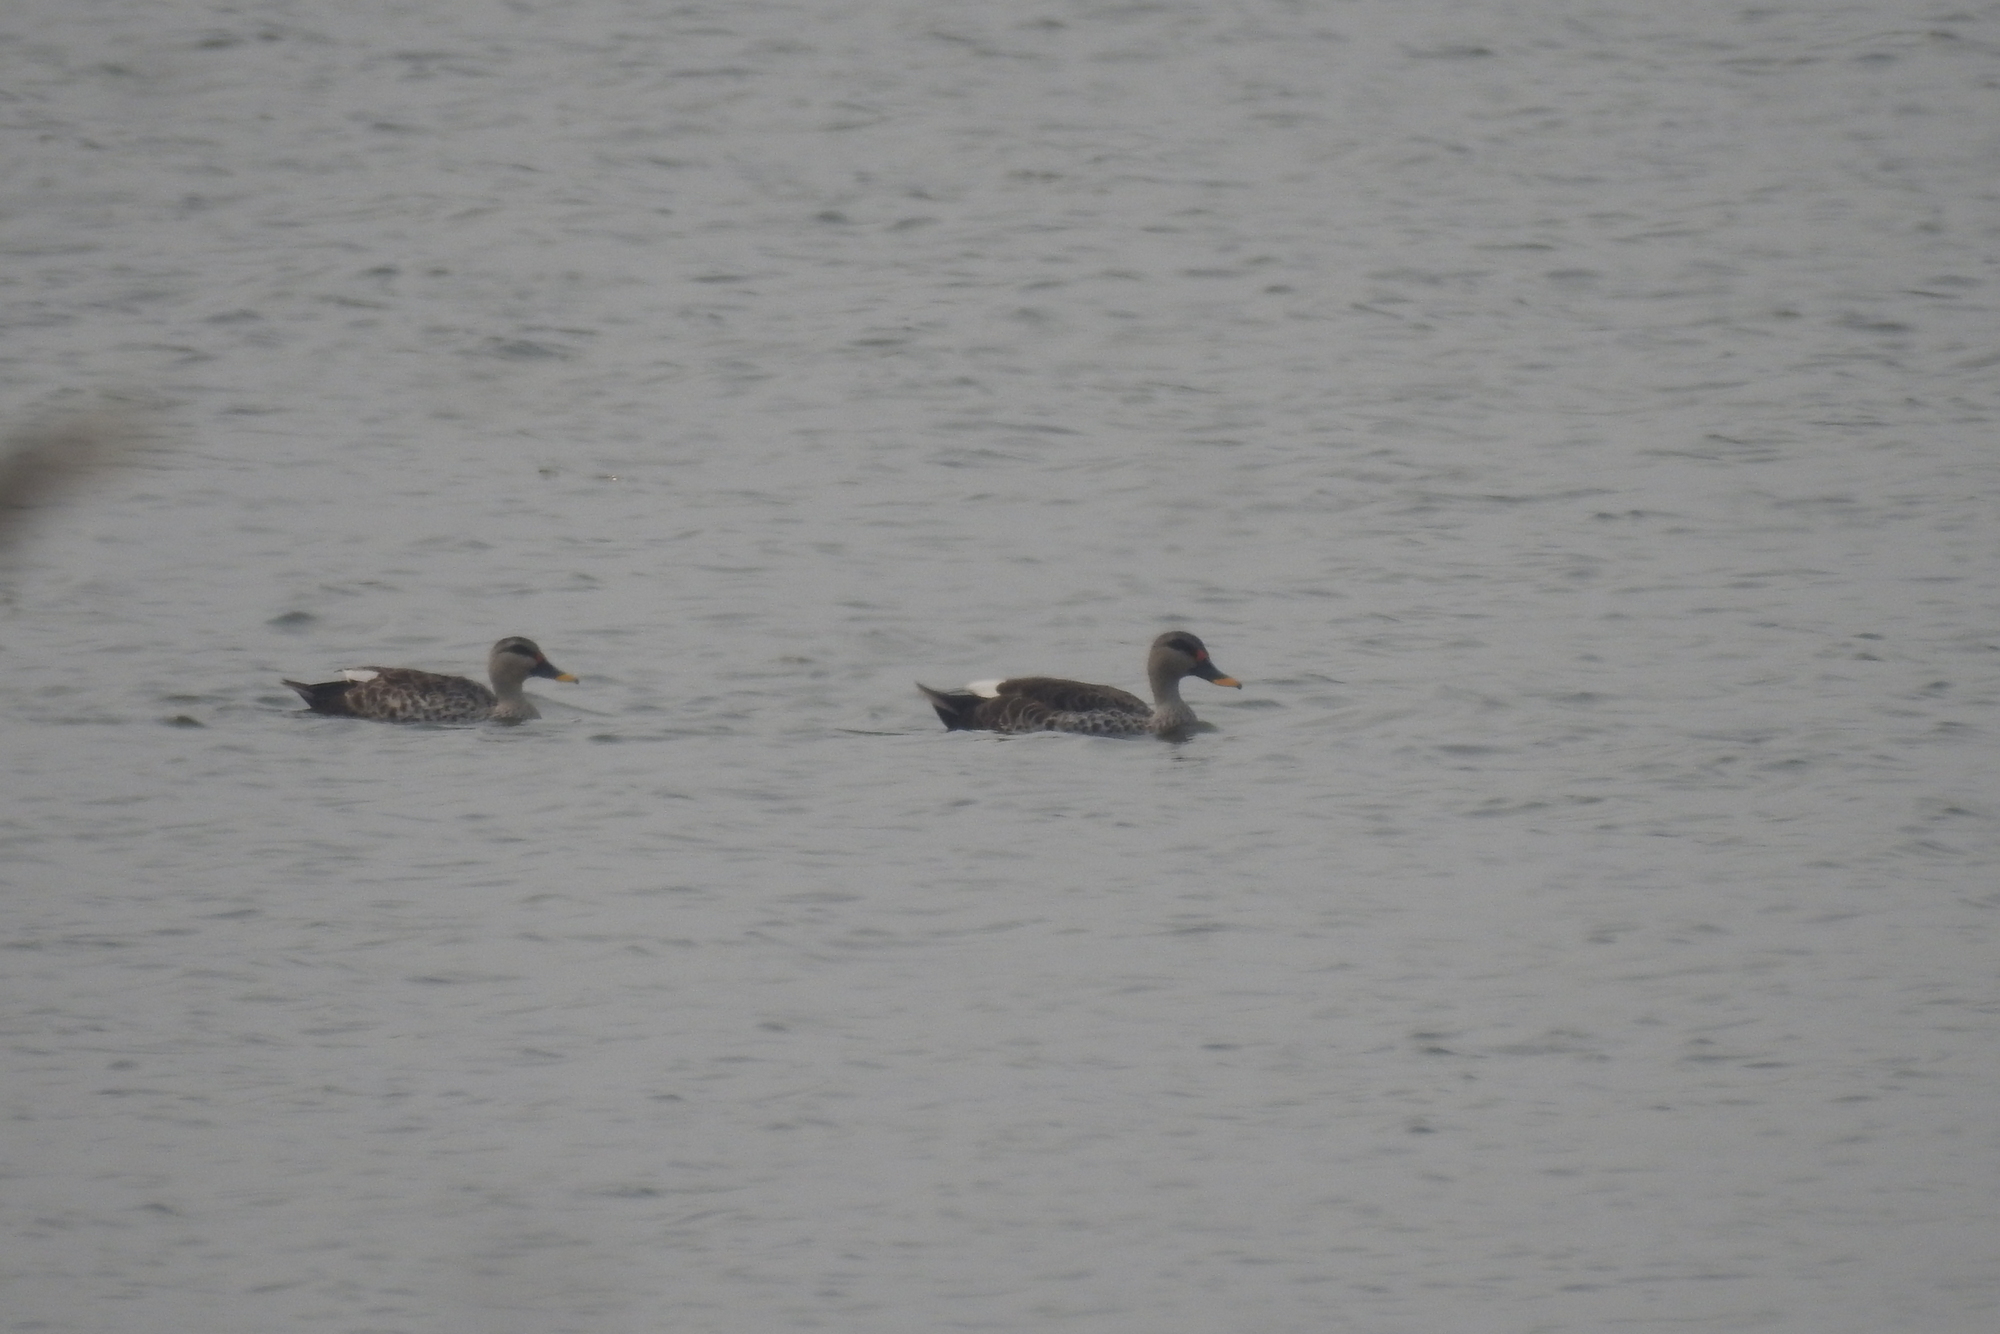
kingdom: Animalia
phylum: Chordata
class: Aves
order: Anseriformes
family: Anatidae
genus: Anas
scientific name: Anas poecilorhyncha
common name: Indian spot-billed duck
